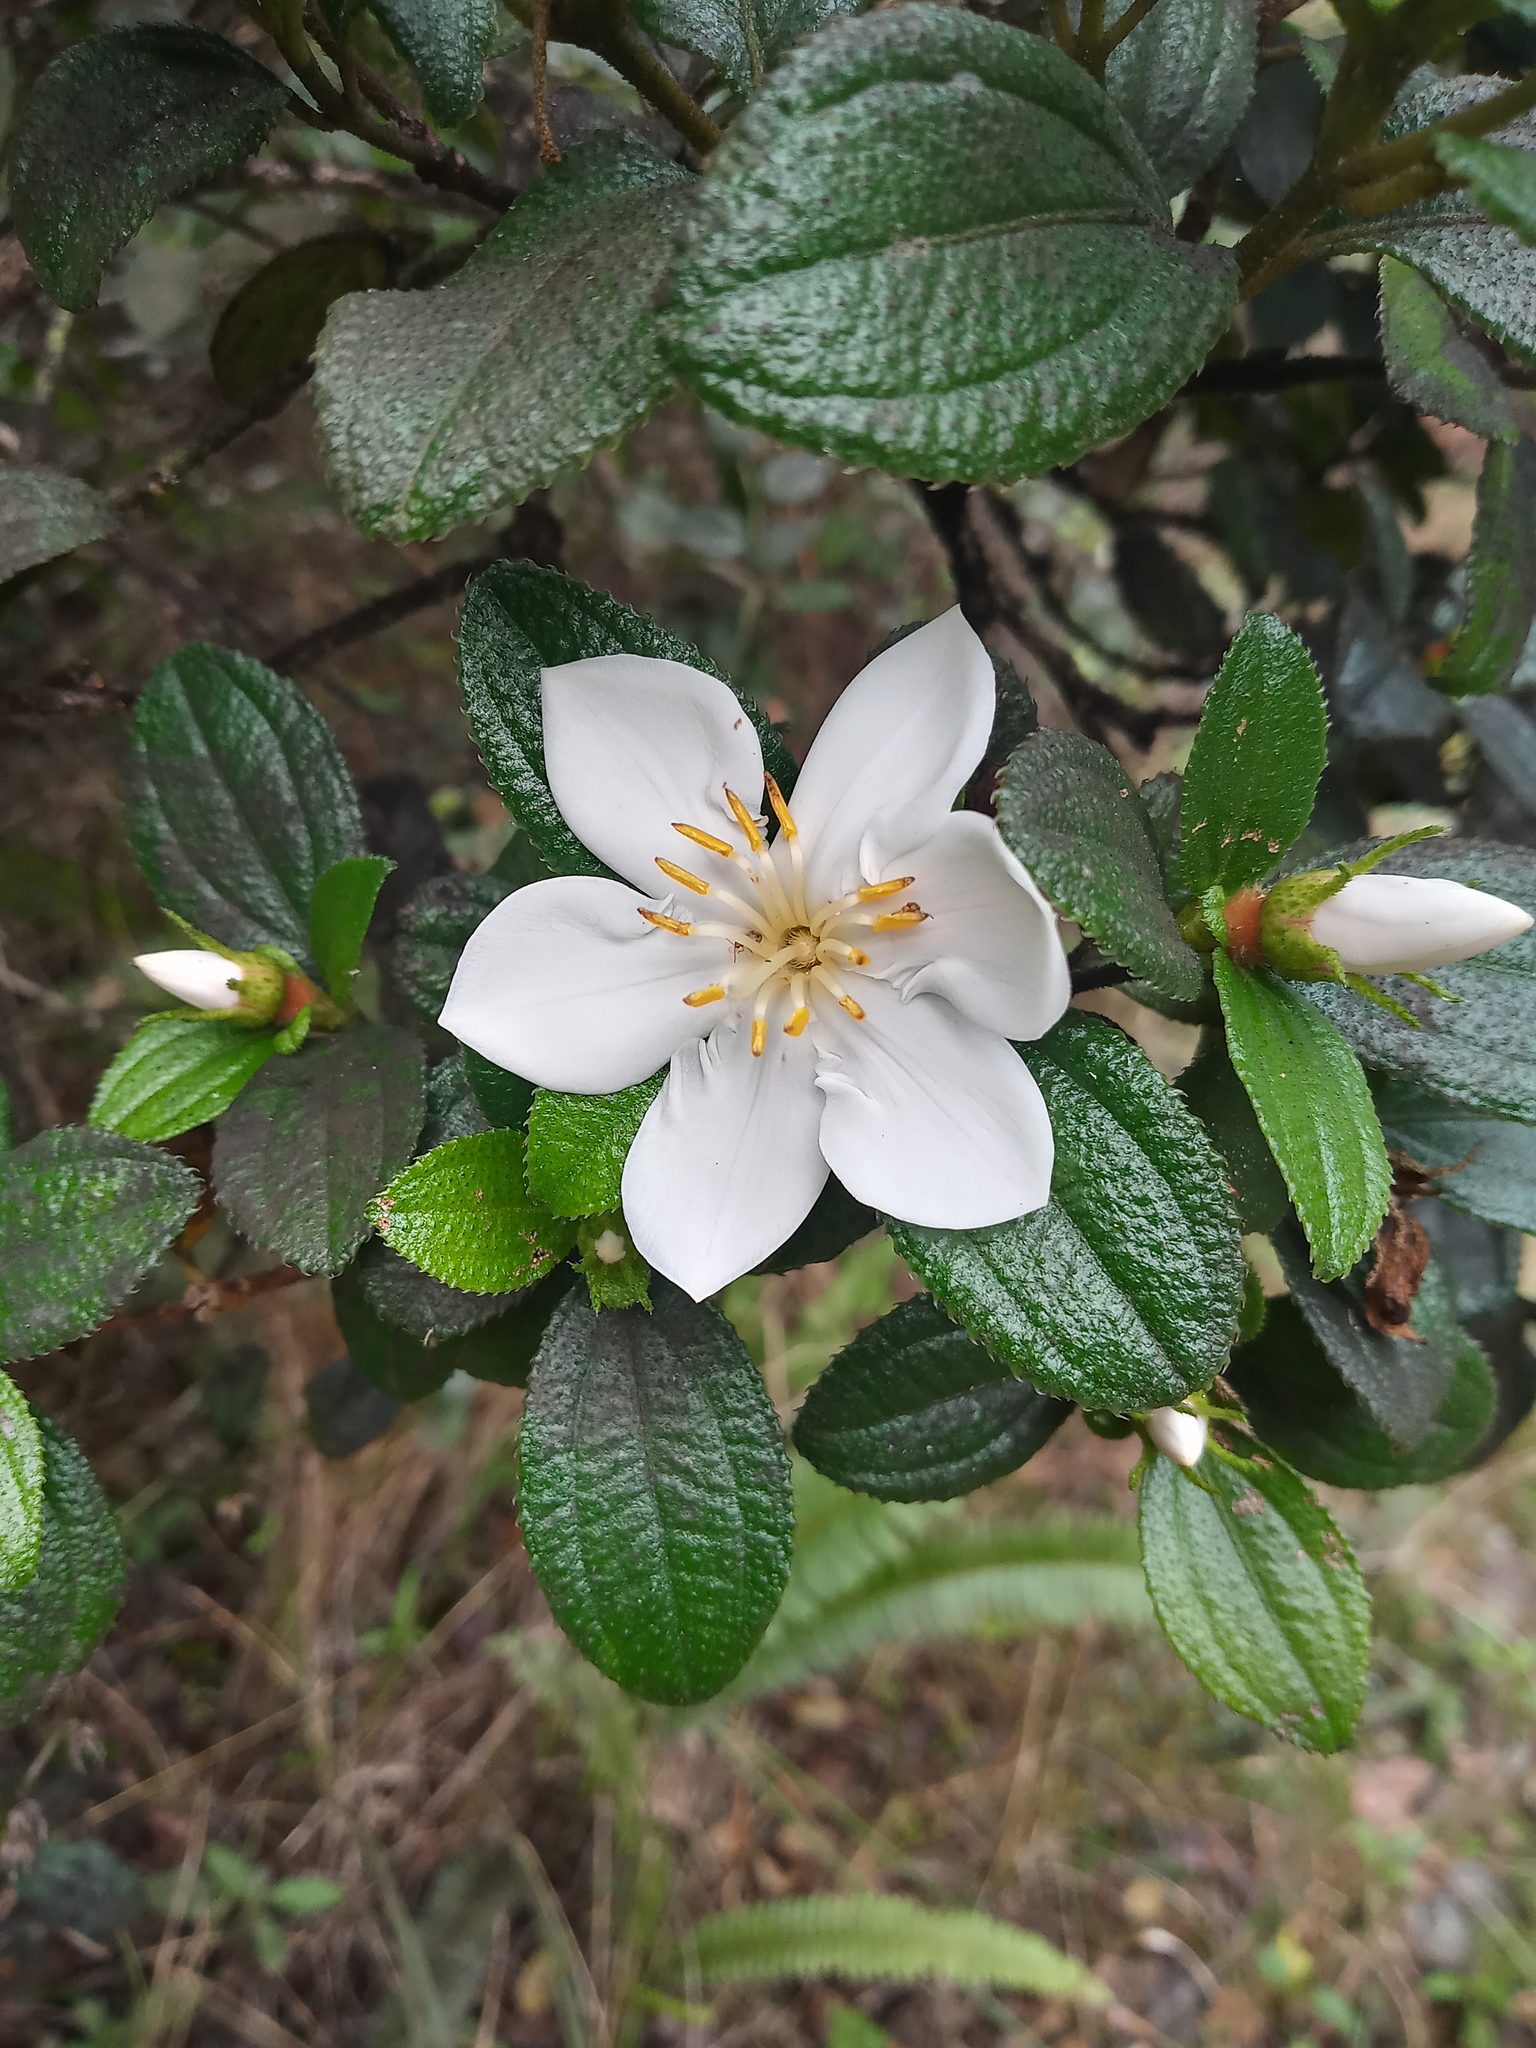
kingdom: Plantae
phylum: Tracheophyta
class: Magnoliopsida
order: Myrtales
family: Melastomataceae
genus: Miconia
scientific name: Miconia karlkrugii
